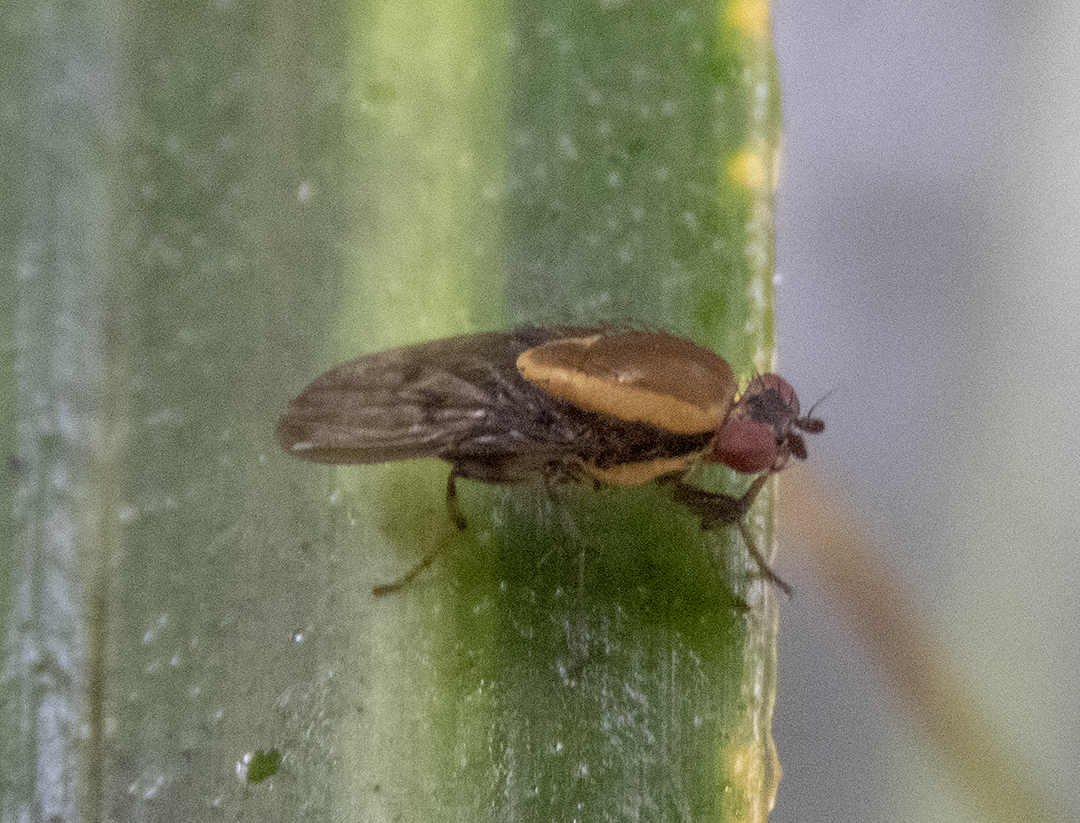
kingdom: Animalia
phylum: Arthropoda
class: Insecta
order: Diptera
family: Heleomyzidae
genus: Allophylopsis
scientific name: Allophylopsis scutellata
